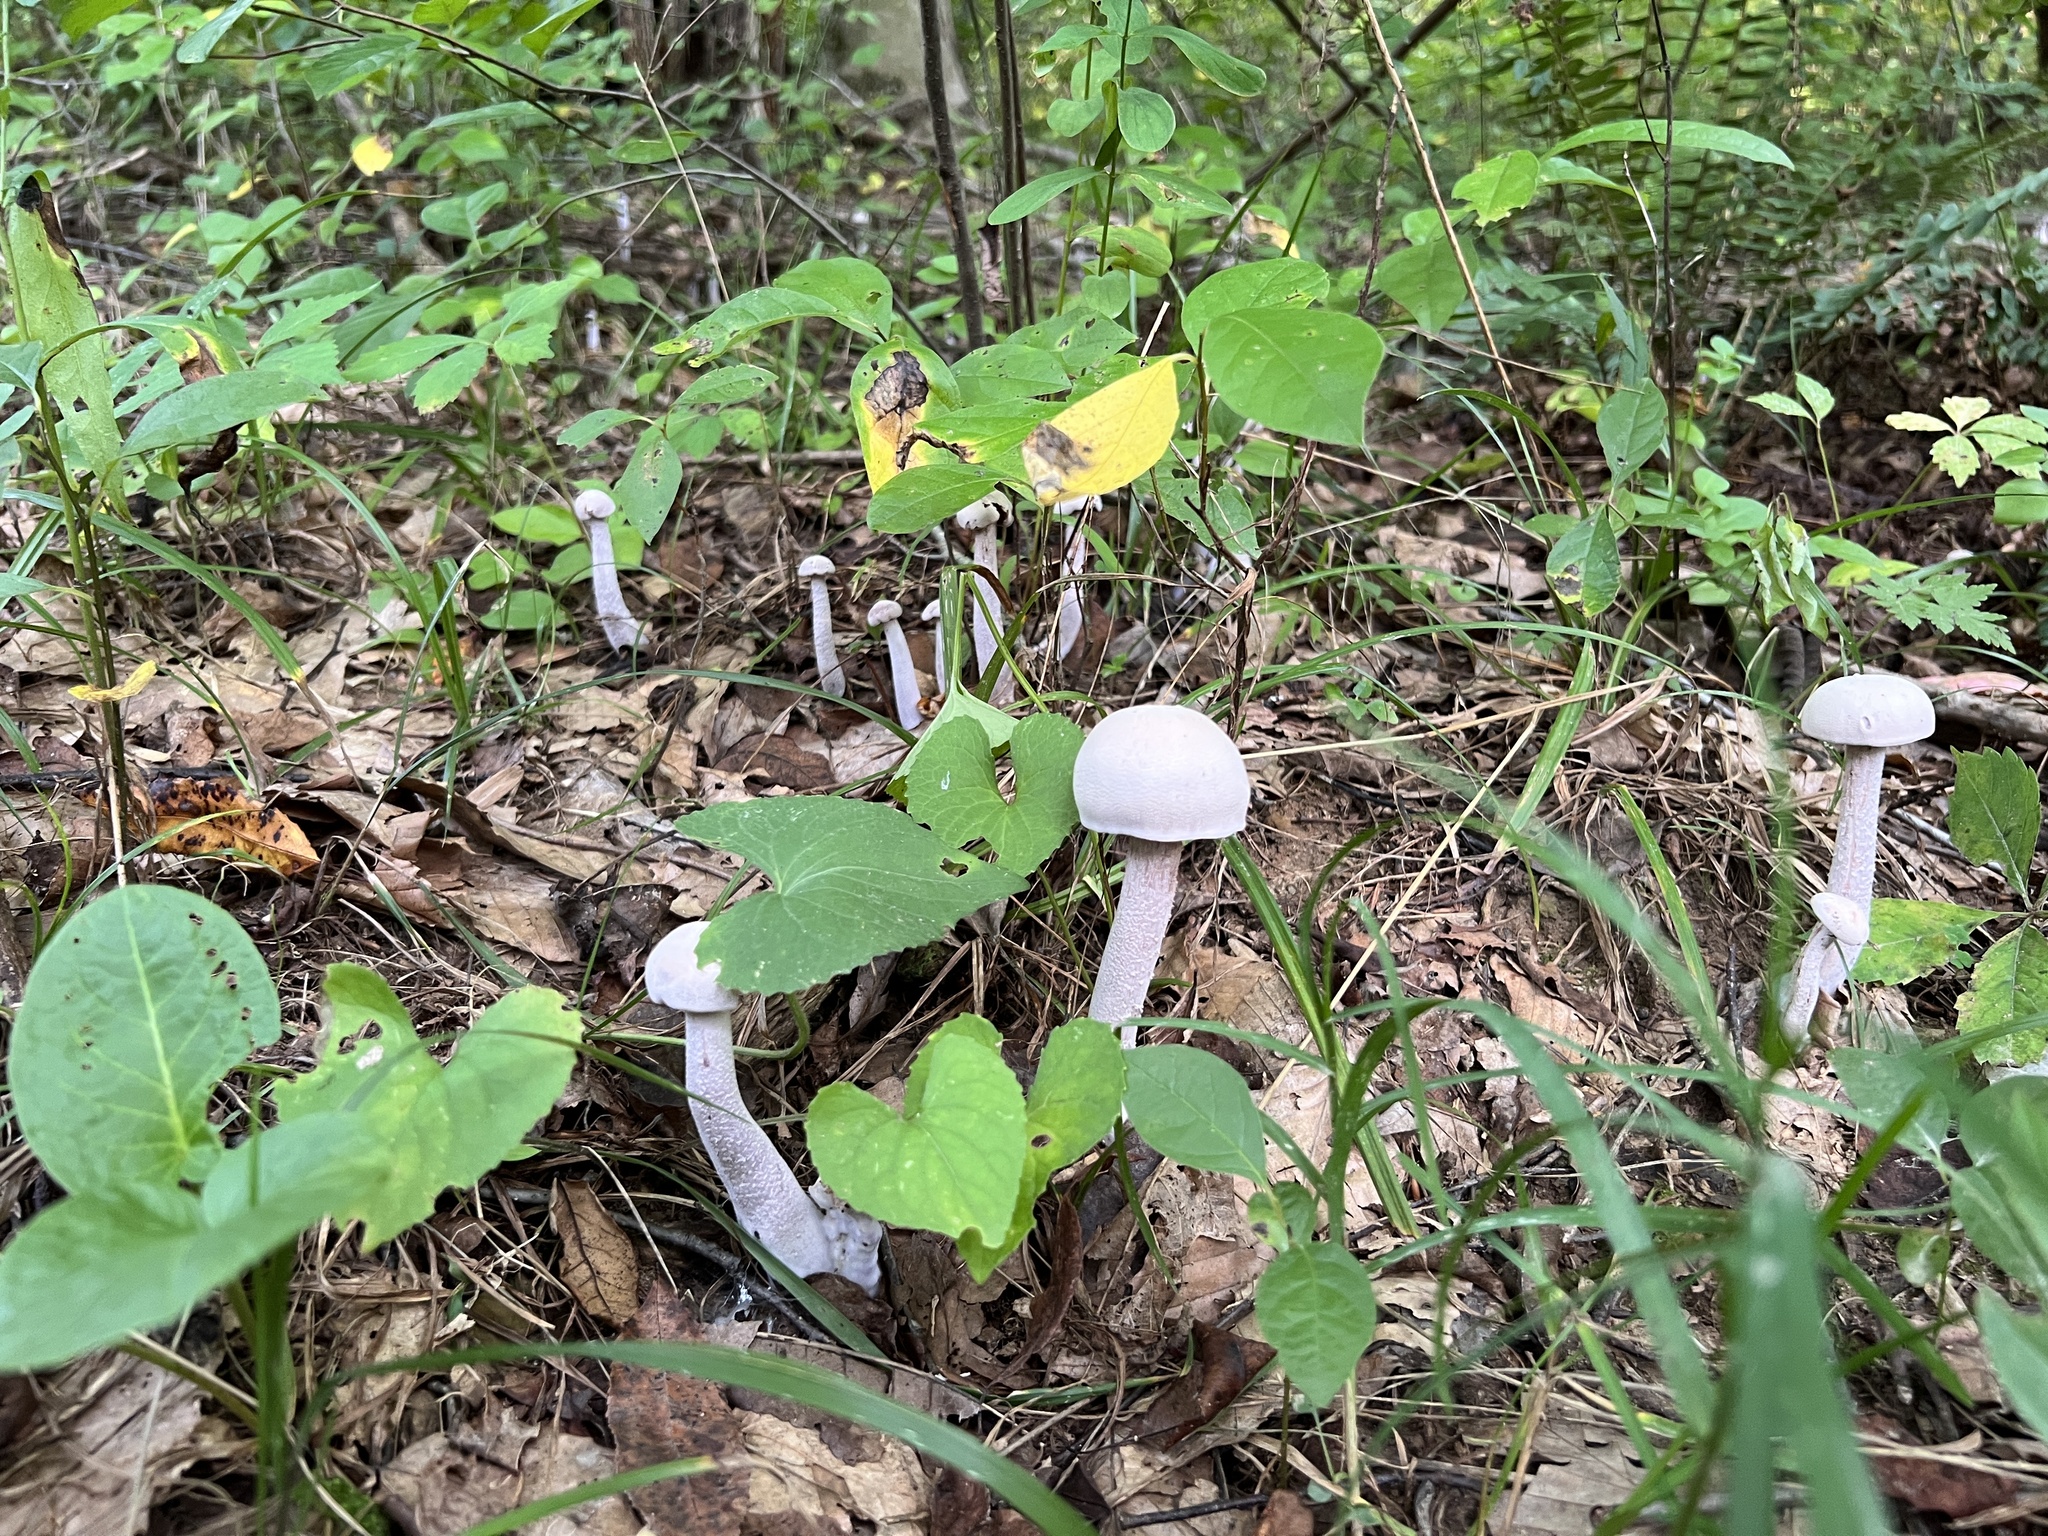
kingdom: Fungi
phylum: Basidiomycota
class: Agaricomycetes
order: Agaricales
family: Hydnangiaceae
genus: Laccaria
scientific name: Laccaria ochropurpurea
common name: Purple laccaria
